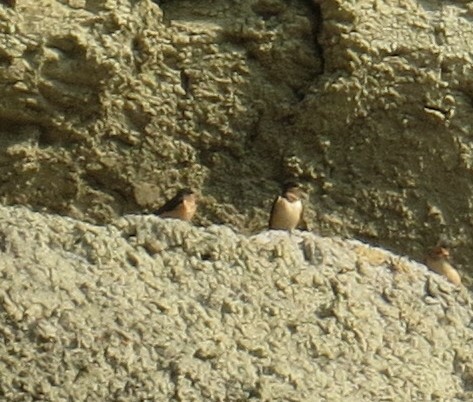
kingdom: Animalia
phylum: Chordata
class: Aves
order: Passeriformes
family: Hirundinidae
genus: Hirundo
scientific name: Hirundo rustica
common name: Barn swallow
